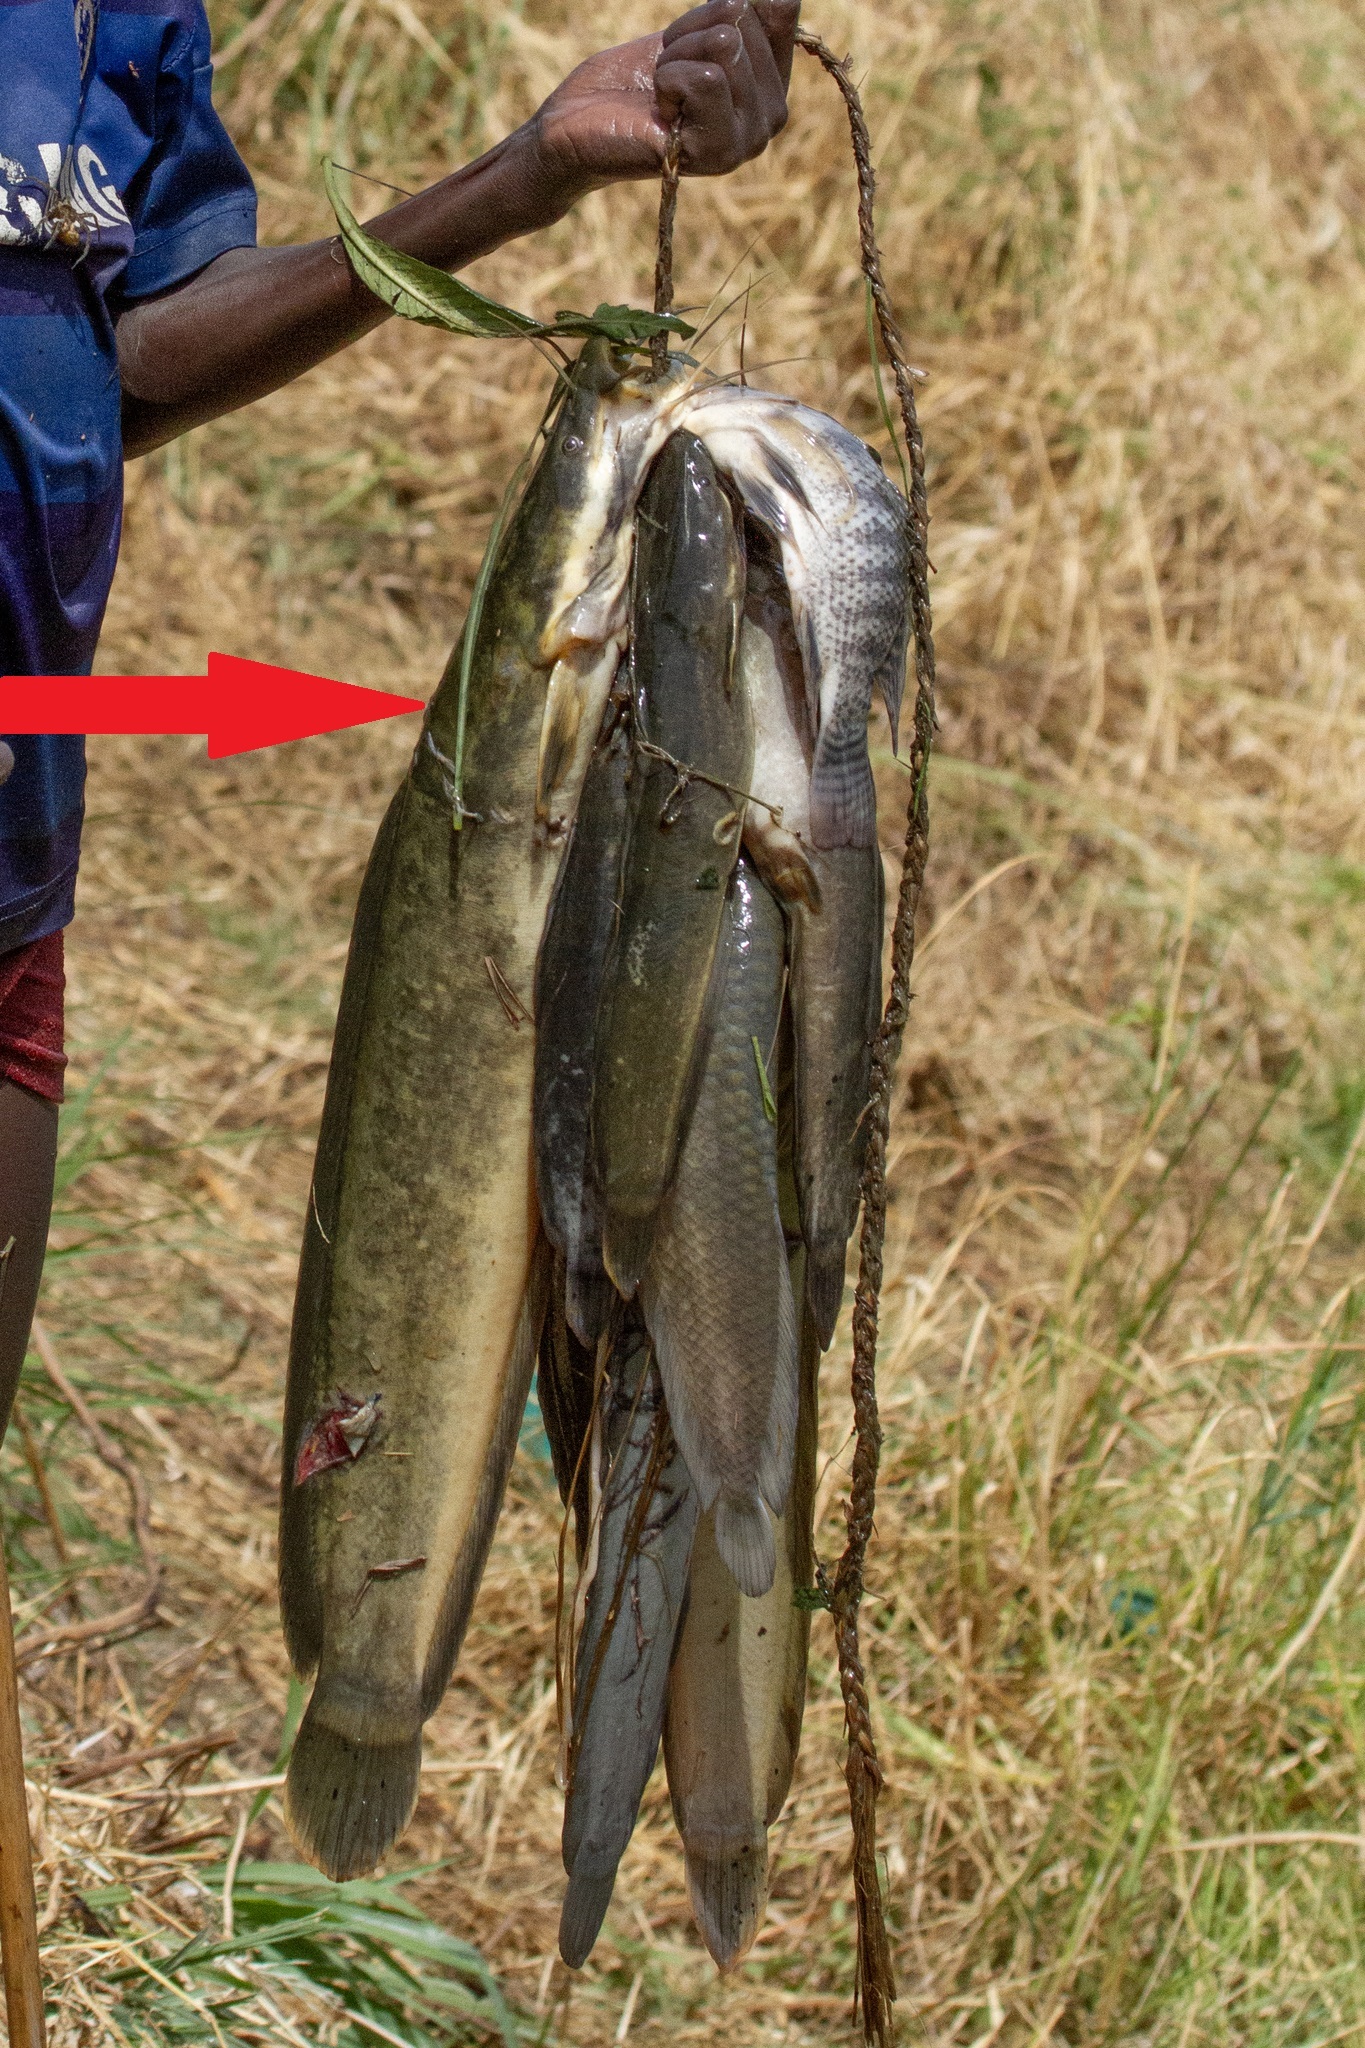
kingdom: Animalia
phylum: Chordata
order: Siluriformes
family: Clariidae
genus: Clarias
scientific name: Clarias gariepinus
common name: African catfish
